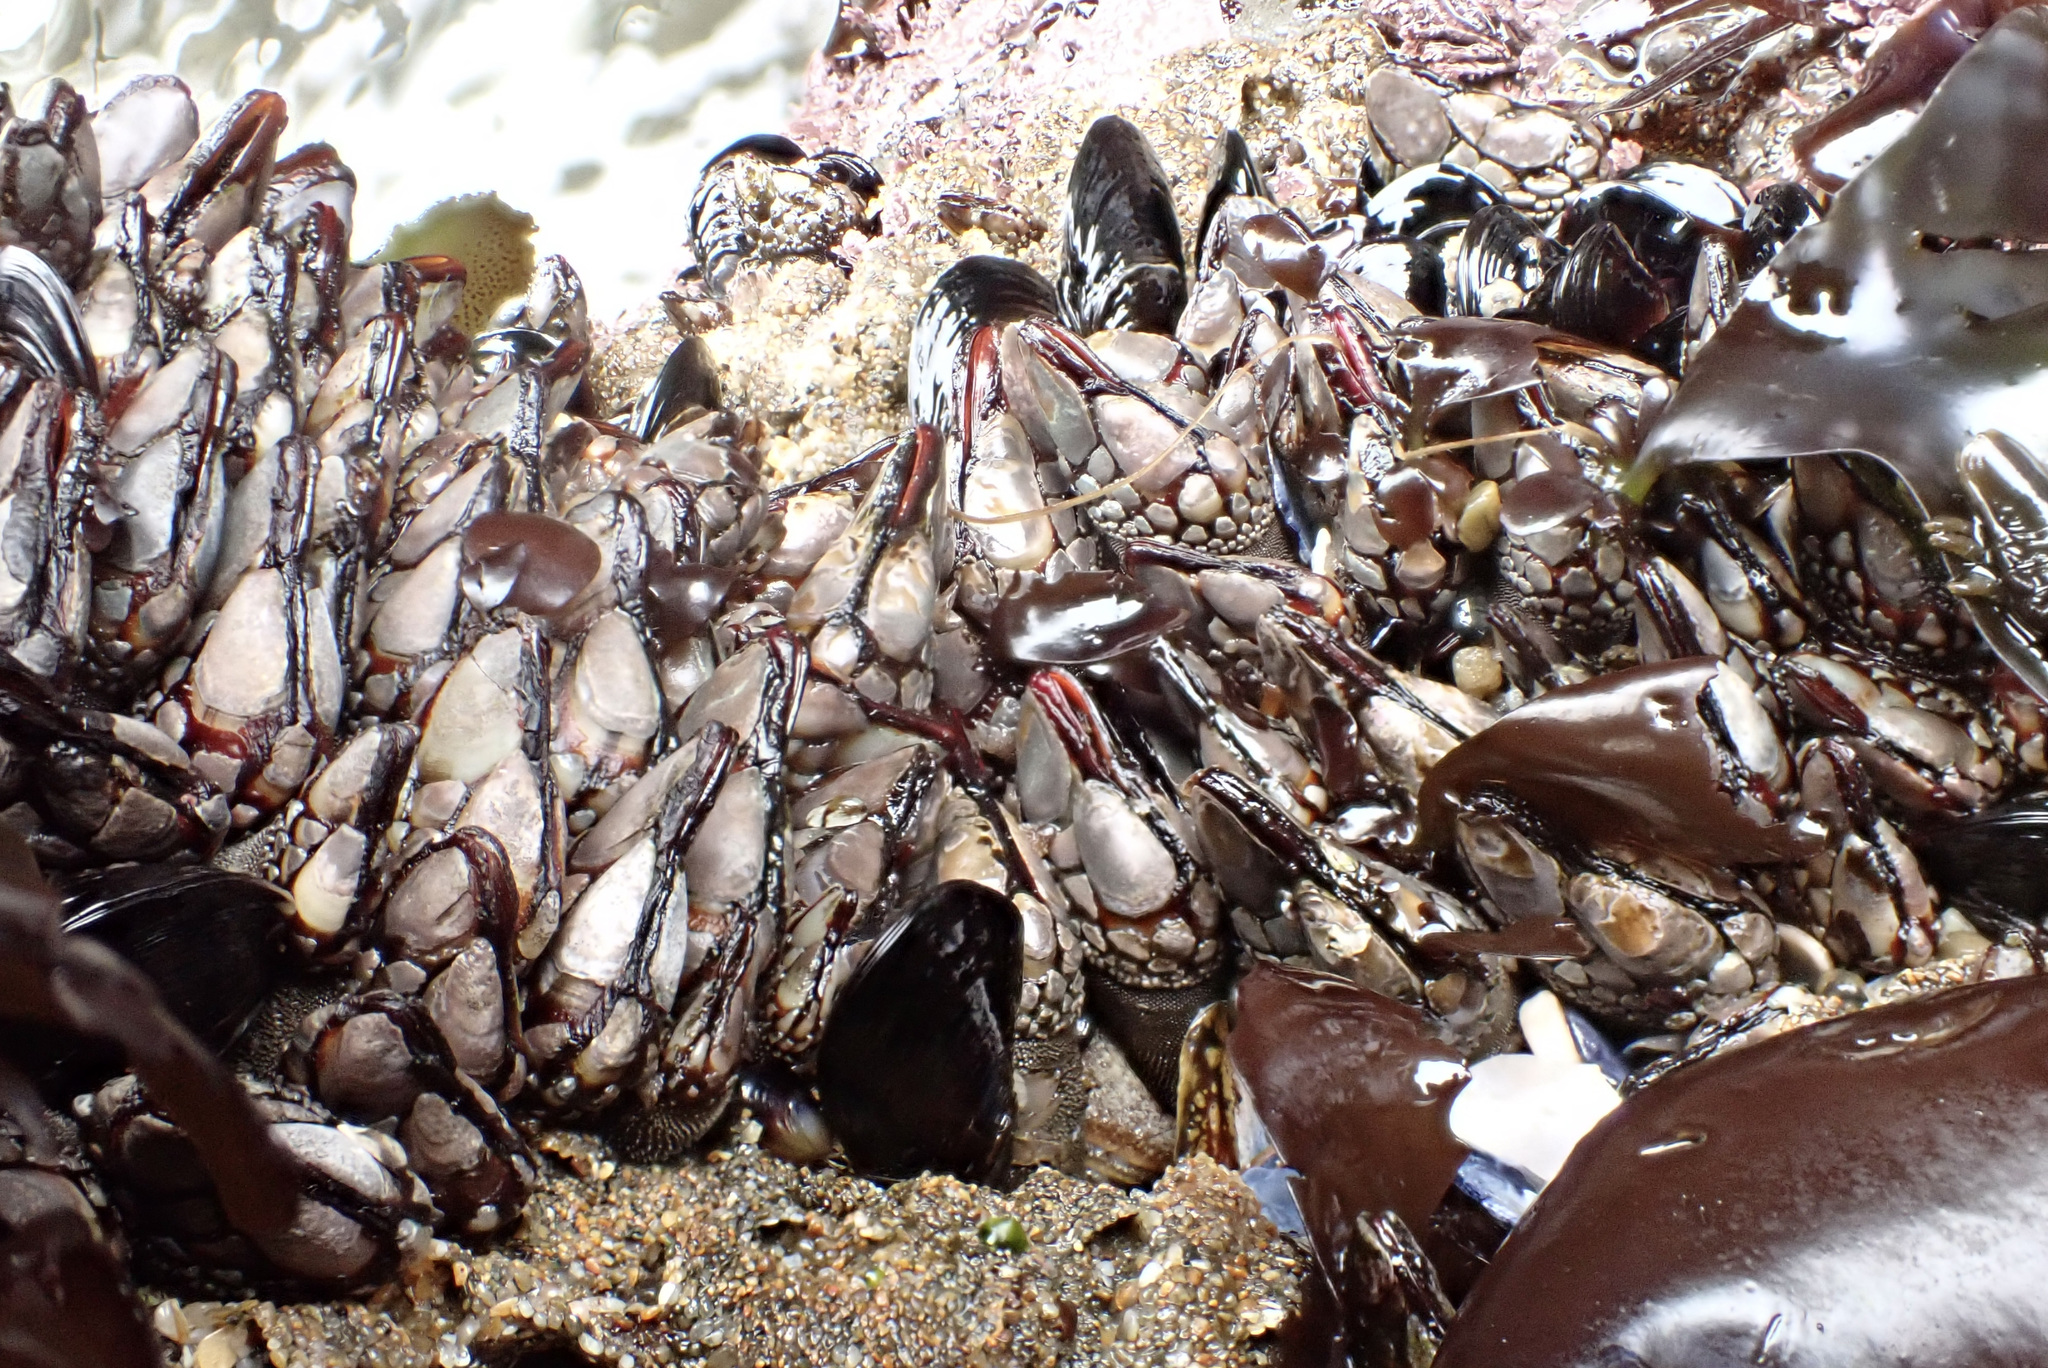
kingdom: Animalia
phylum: Arthropoda
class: Maxillopoda
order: Pedunculata
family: Pollicipedidae
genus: Pollicipes
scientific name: Pollicipes polymerus
